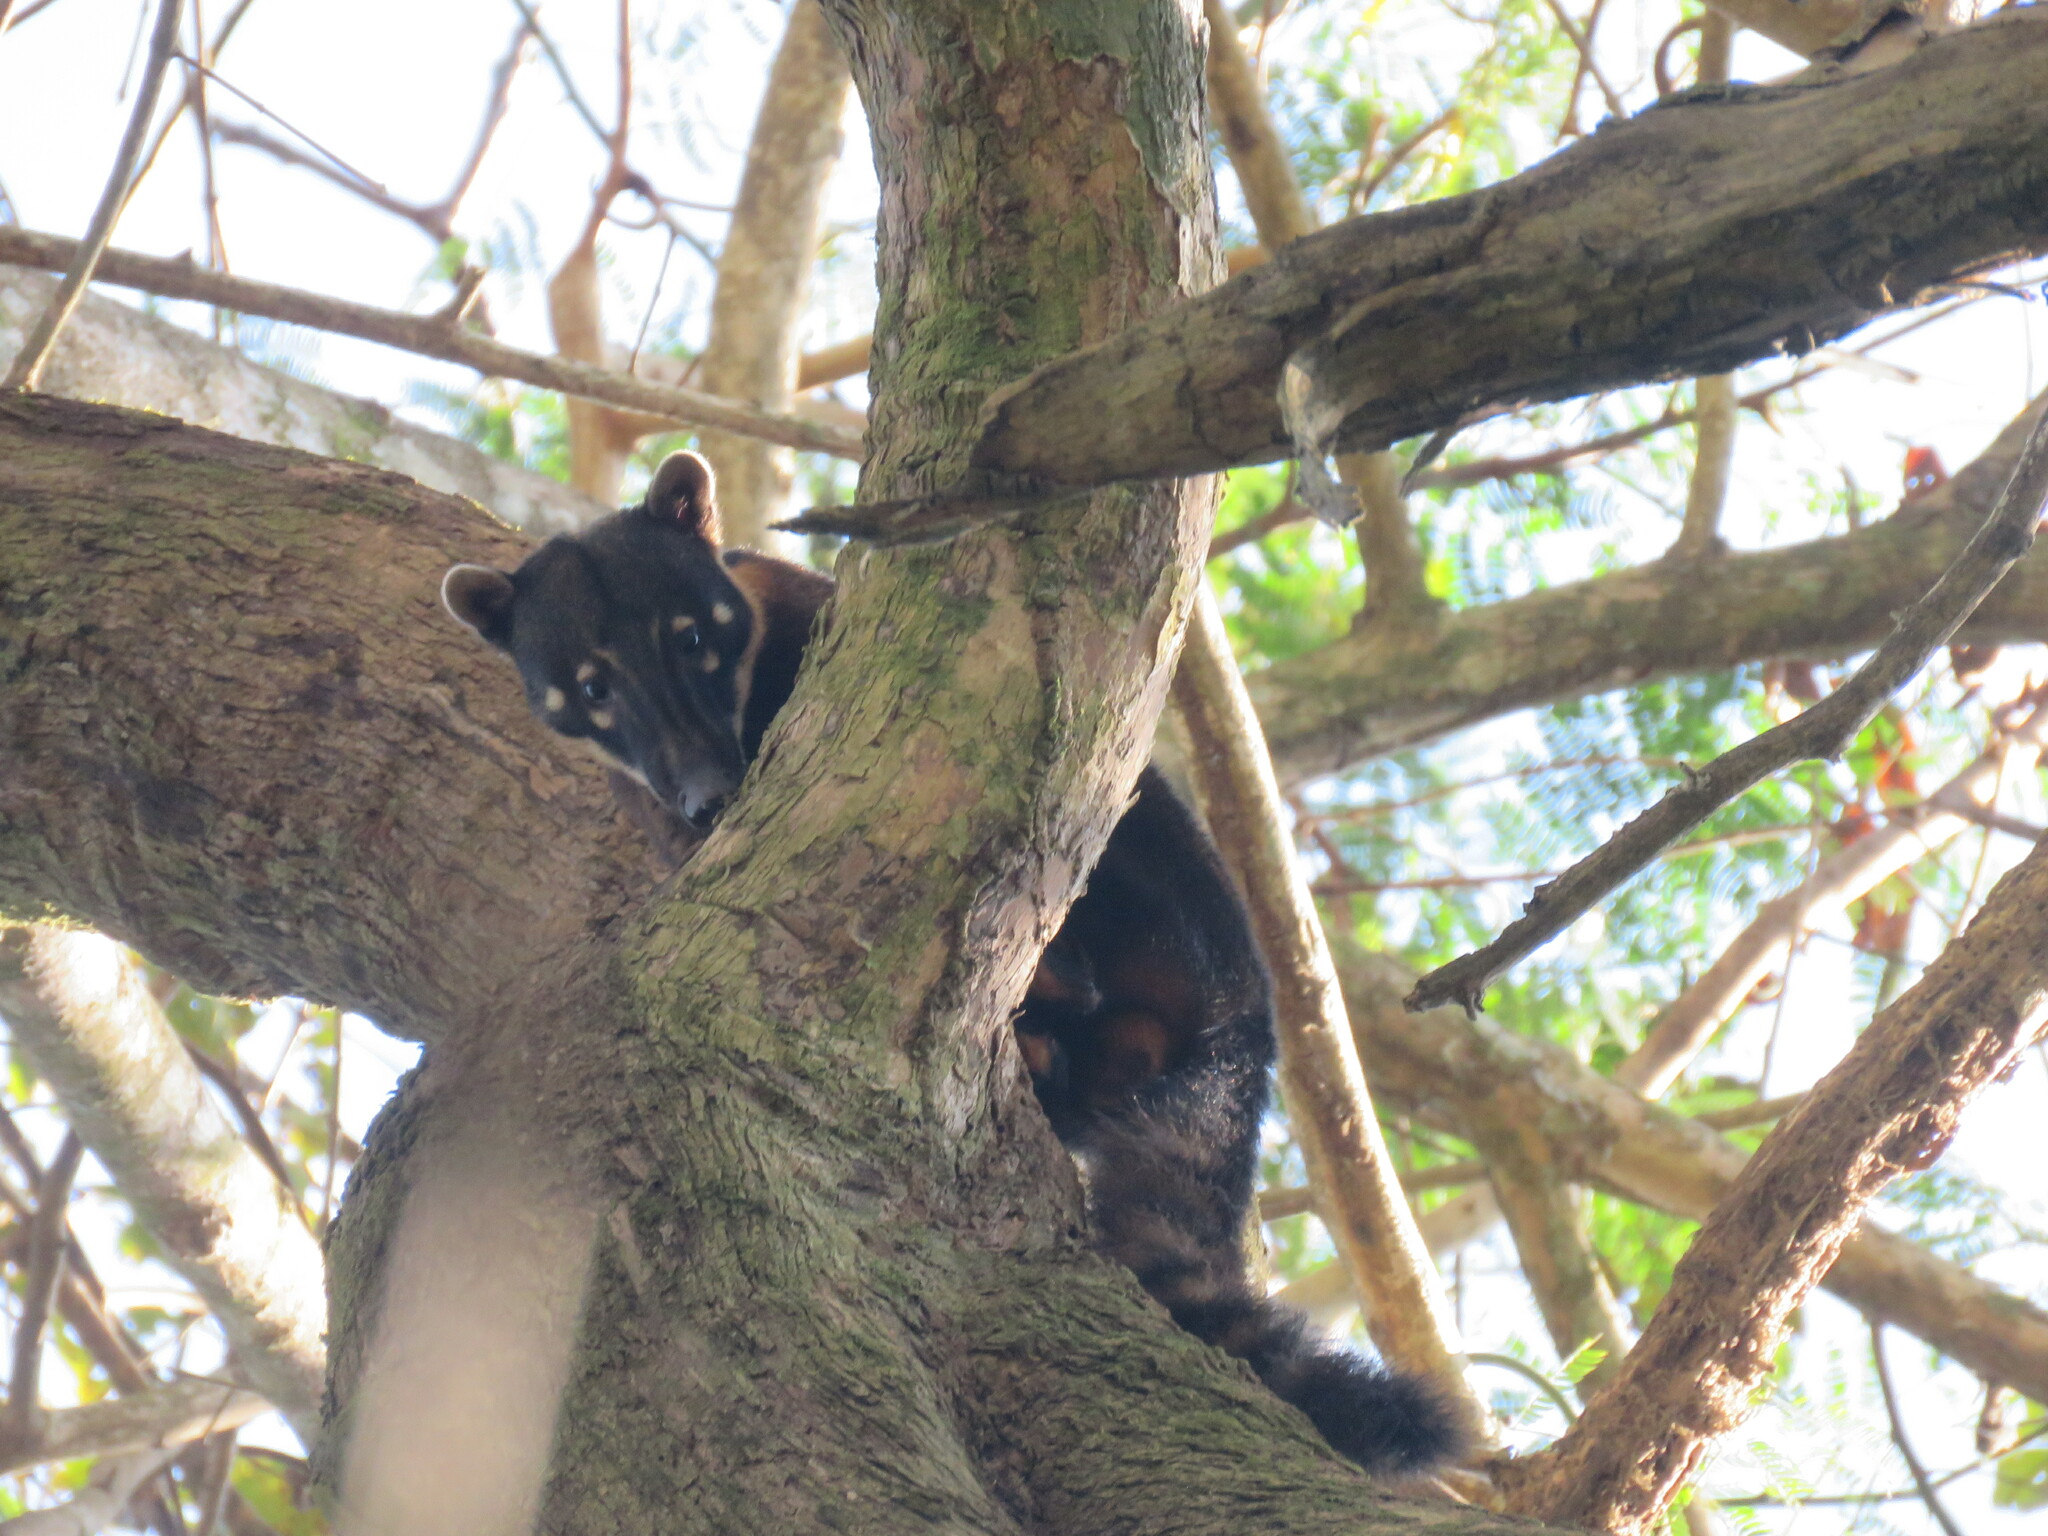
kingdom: Animalia
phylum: Chordata
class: Mammalia
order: Carnivora
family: Procyonidae
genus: Nasua
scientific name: Nasua nasua
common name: South american coati
